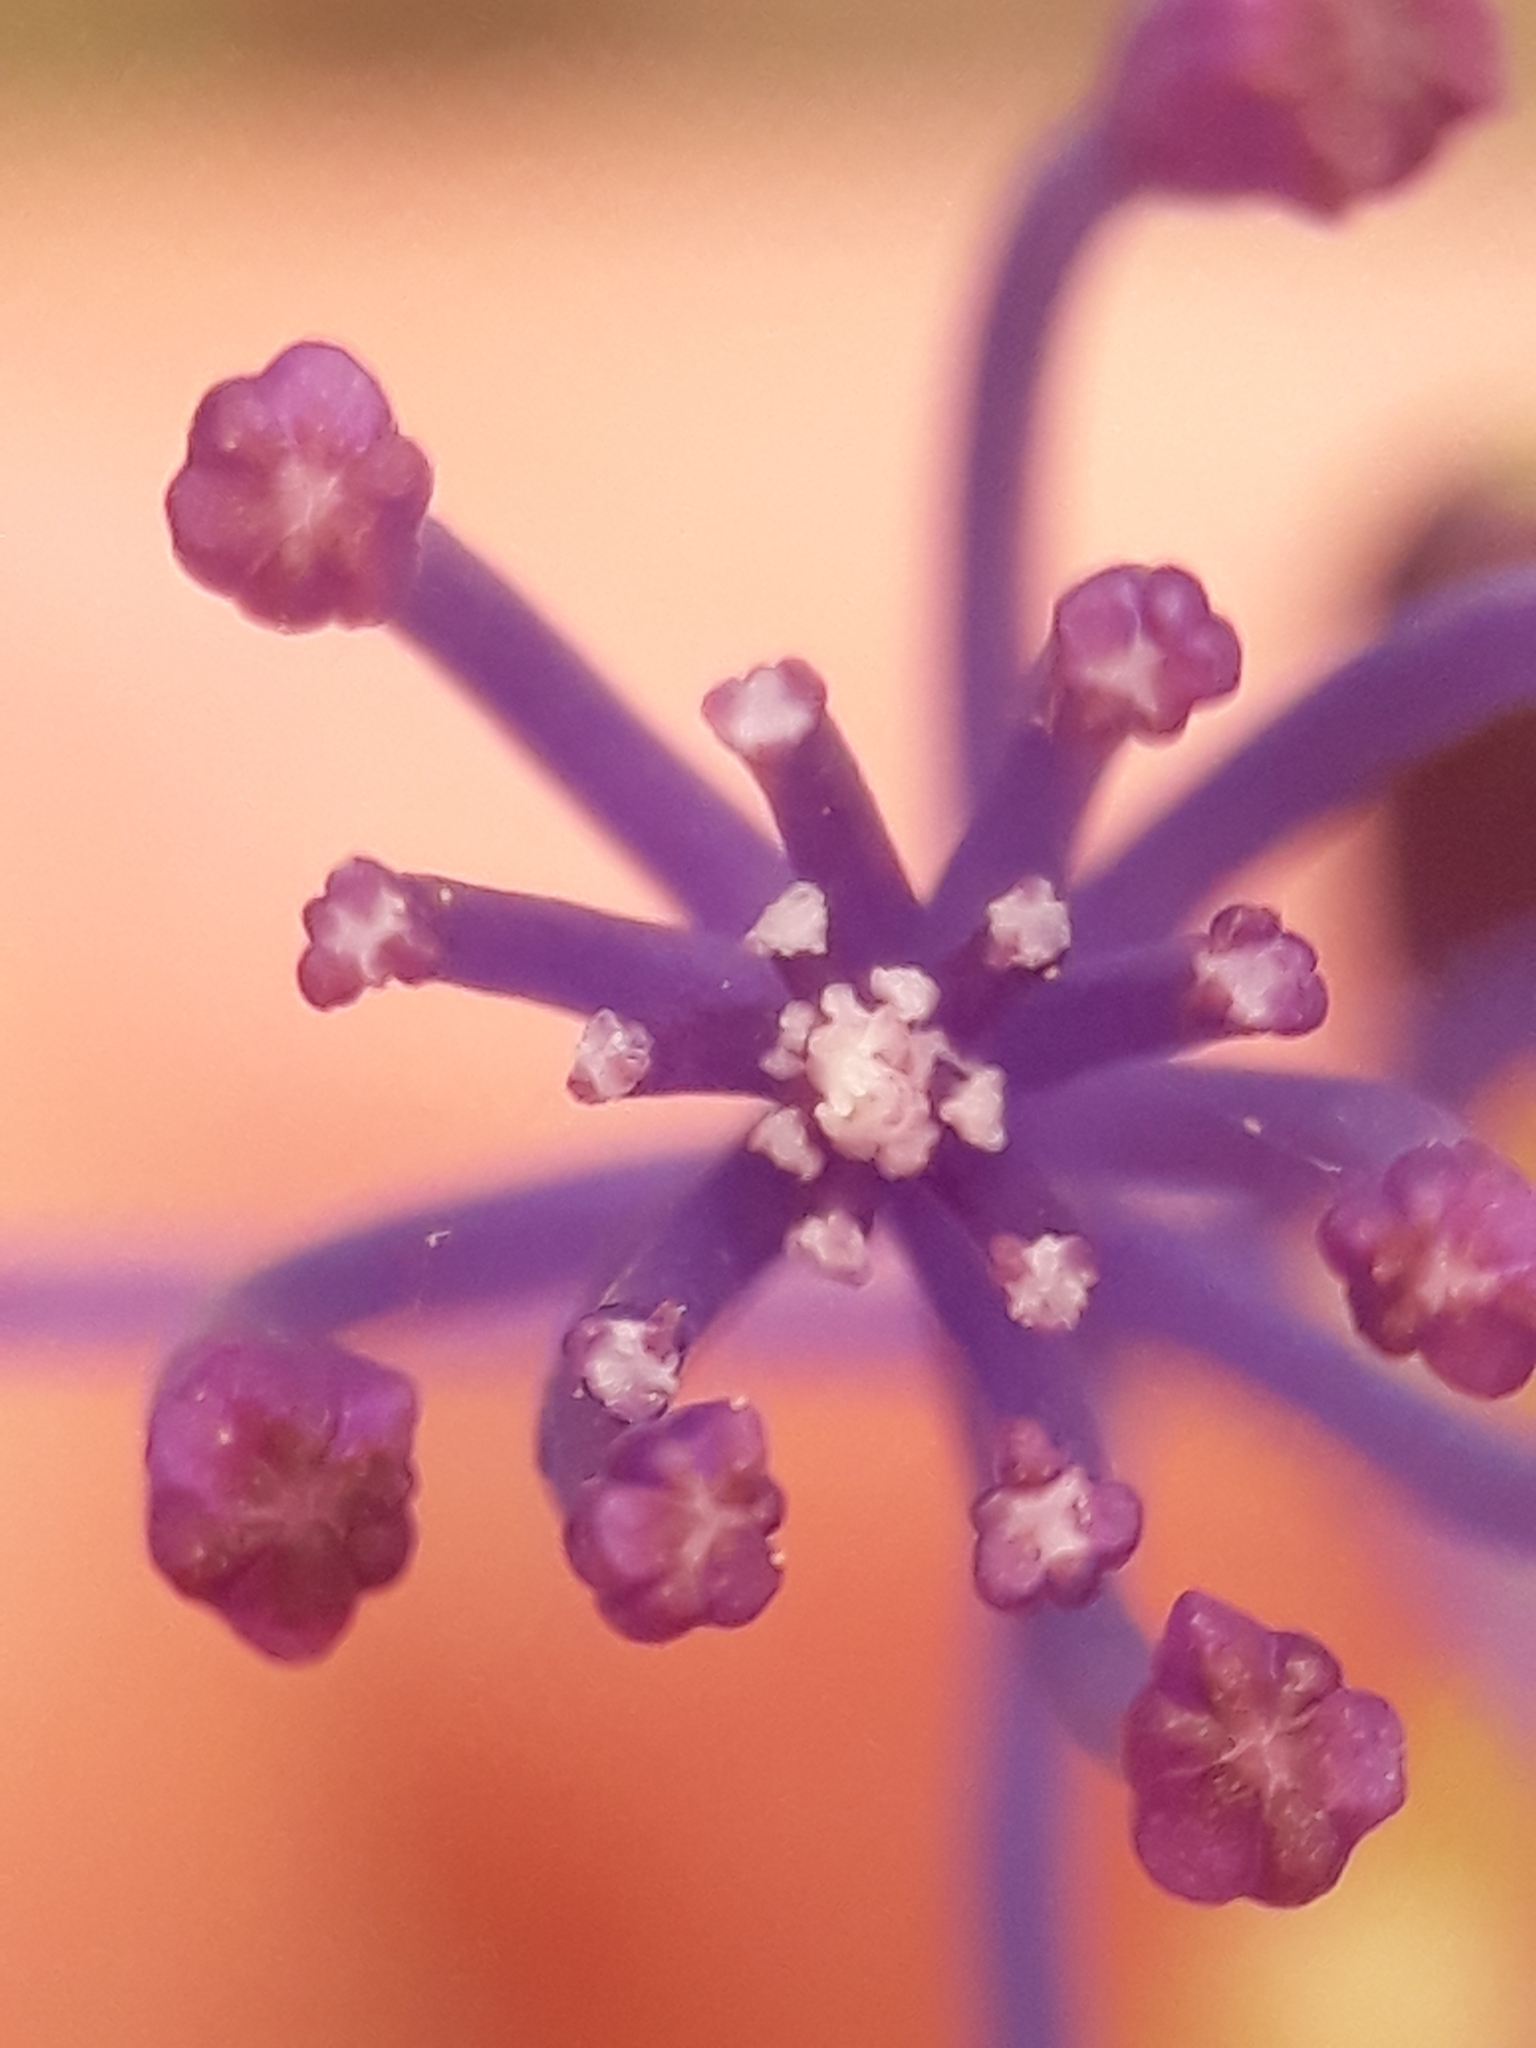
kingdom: Plantae
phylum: Tracheophyta
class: Liliopsida
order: Asparagales
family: Asparagaceae
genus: Muscari
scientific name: Muscari comosum
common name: Tassel hyacinth
